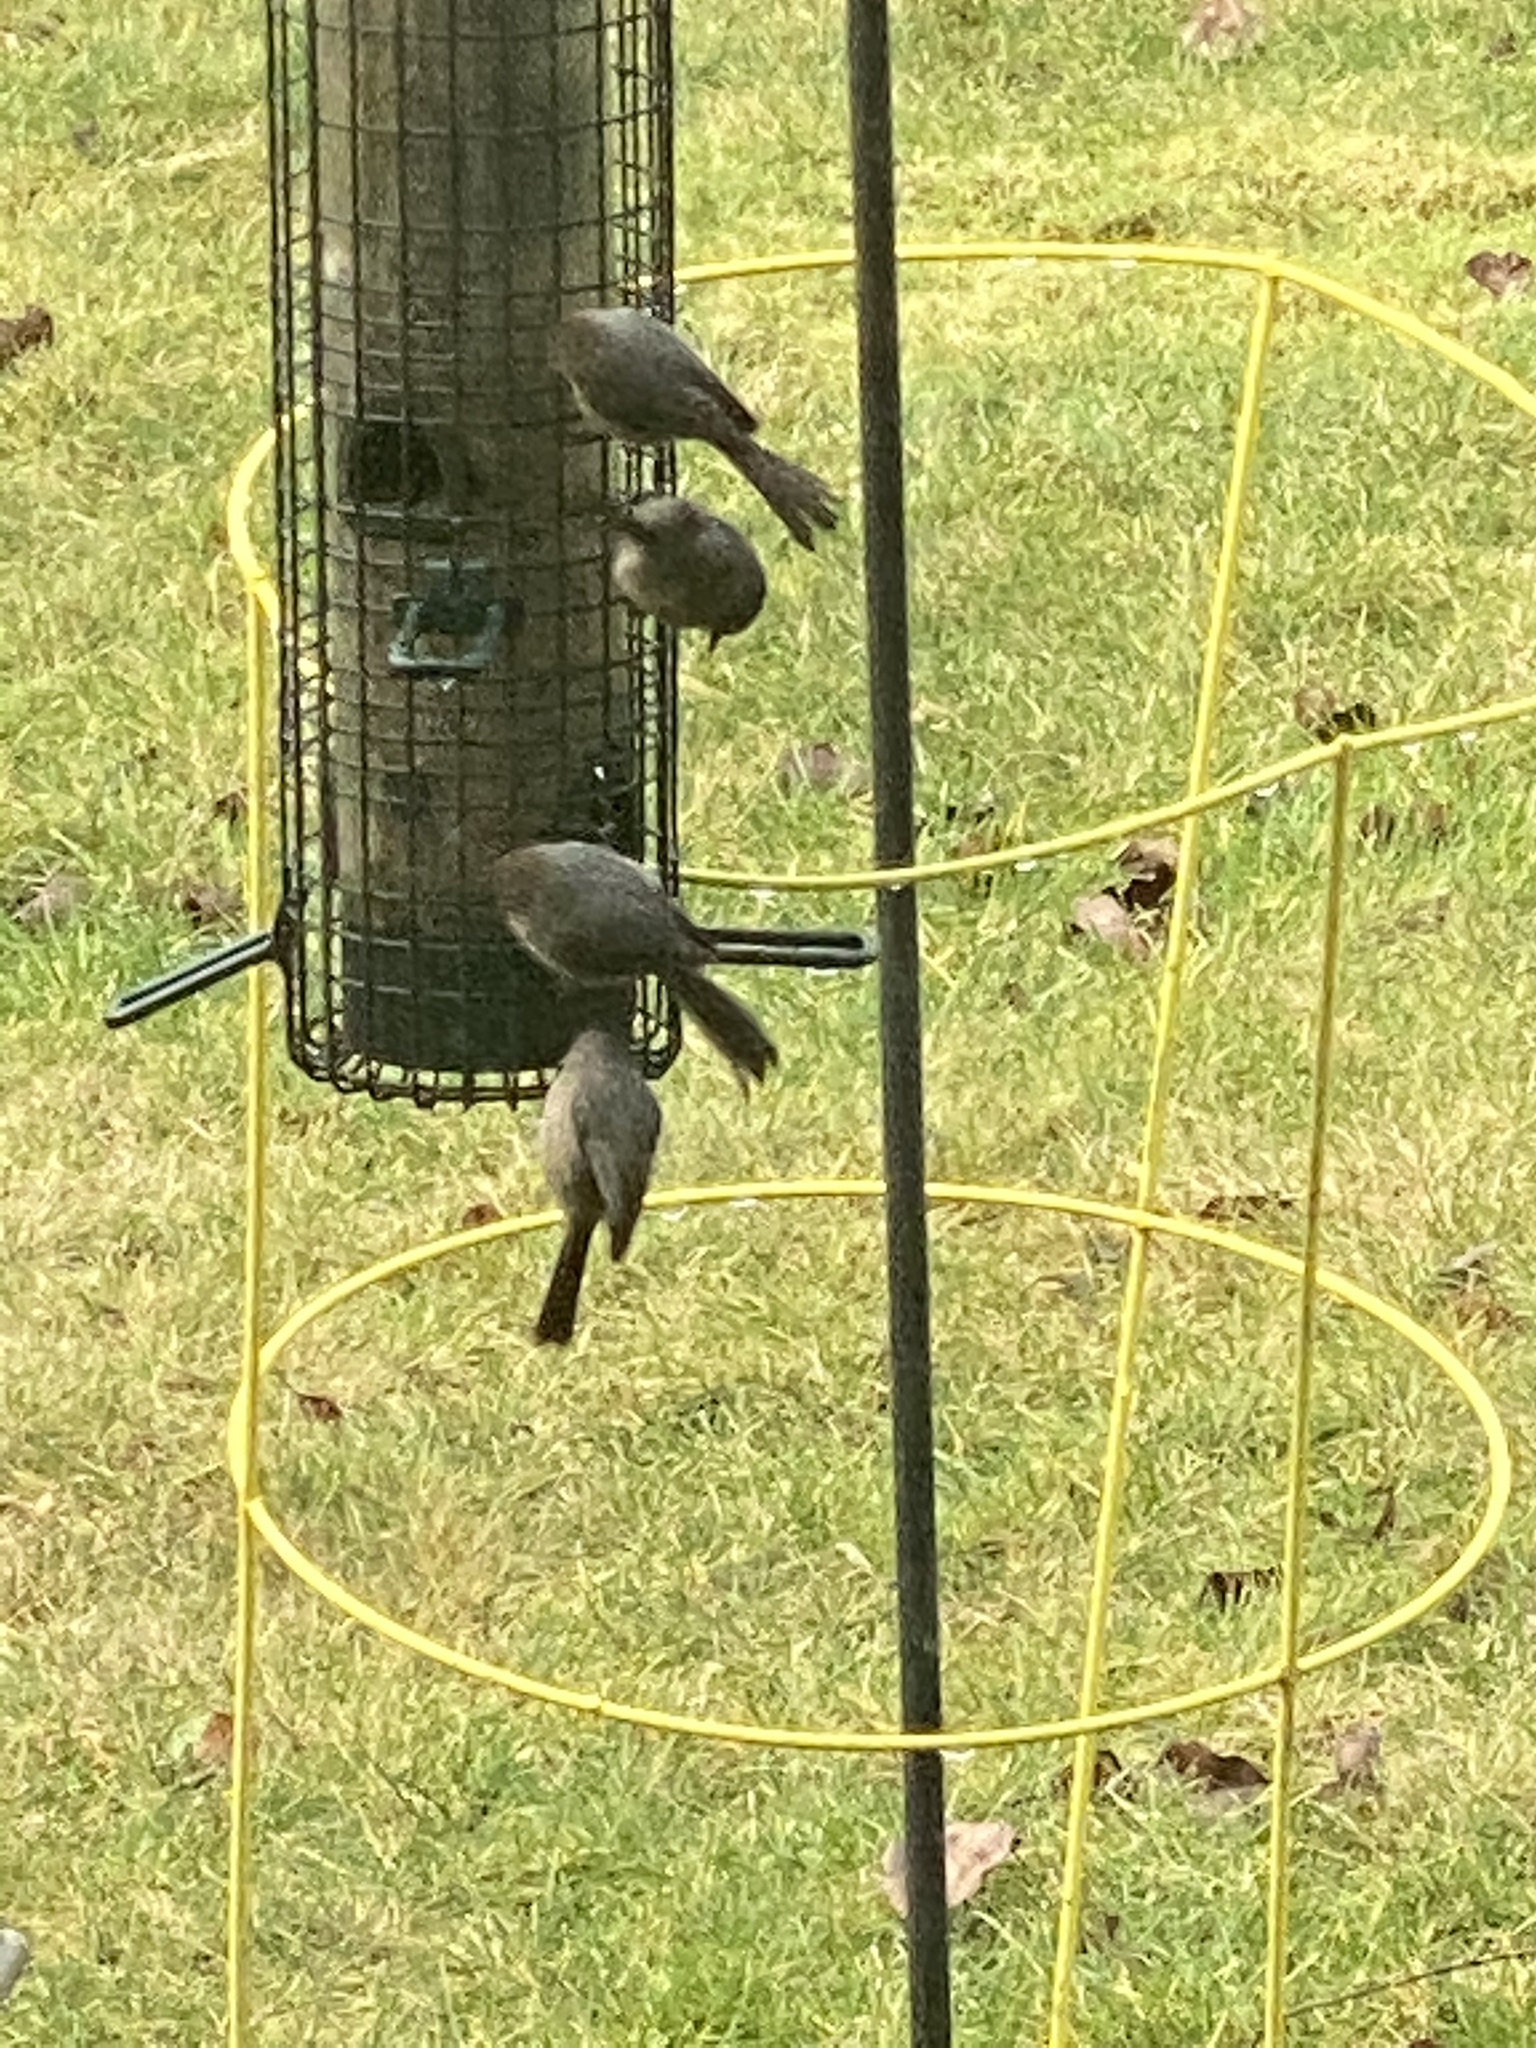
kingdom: Animalia
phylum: Chordata
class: Aves
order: Passeriformes
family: Aegithalidae
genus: Psaltriparus
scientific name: Psaltriparus minimus
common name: American bushtit
